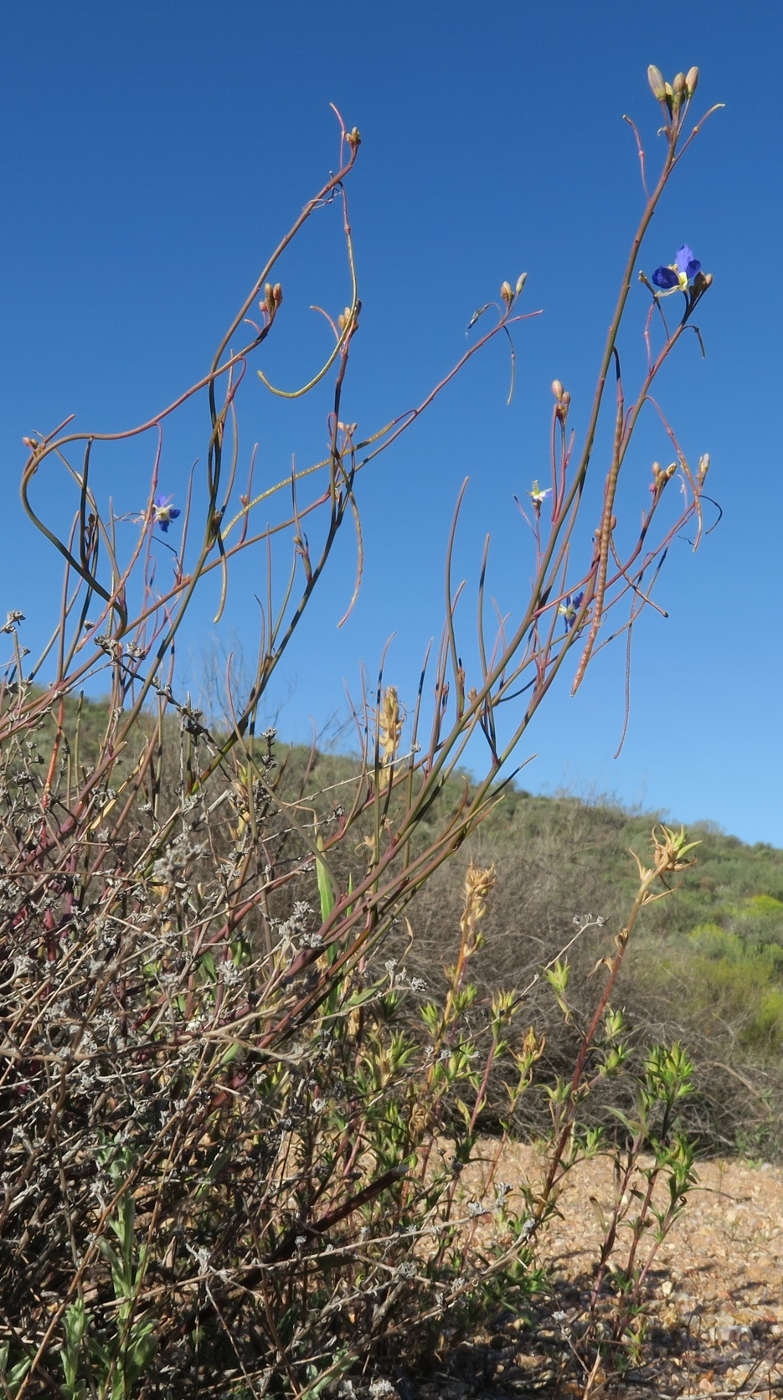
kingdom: Plantae
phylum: Tracheophyta
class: Magnoliopsida
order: Brassicales
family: Brassicaceae
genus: Heliophila
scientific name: Heliophila lactea
